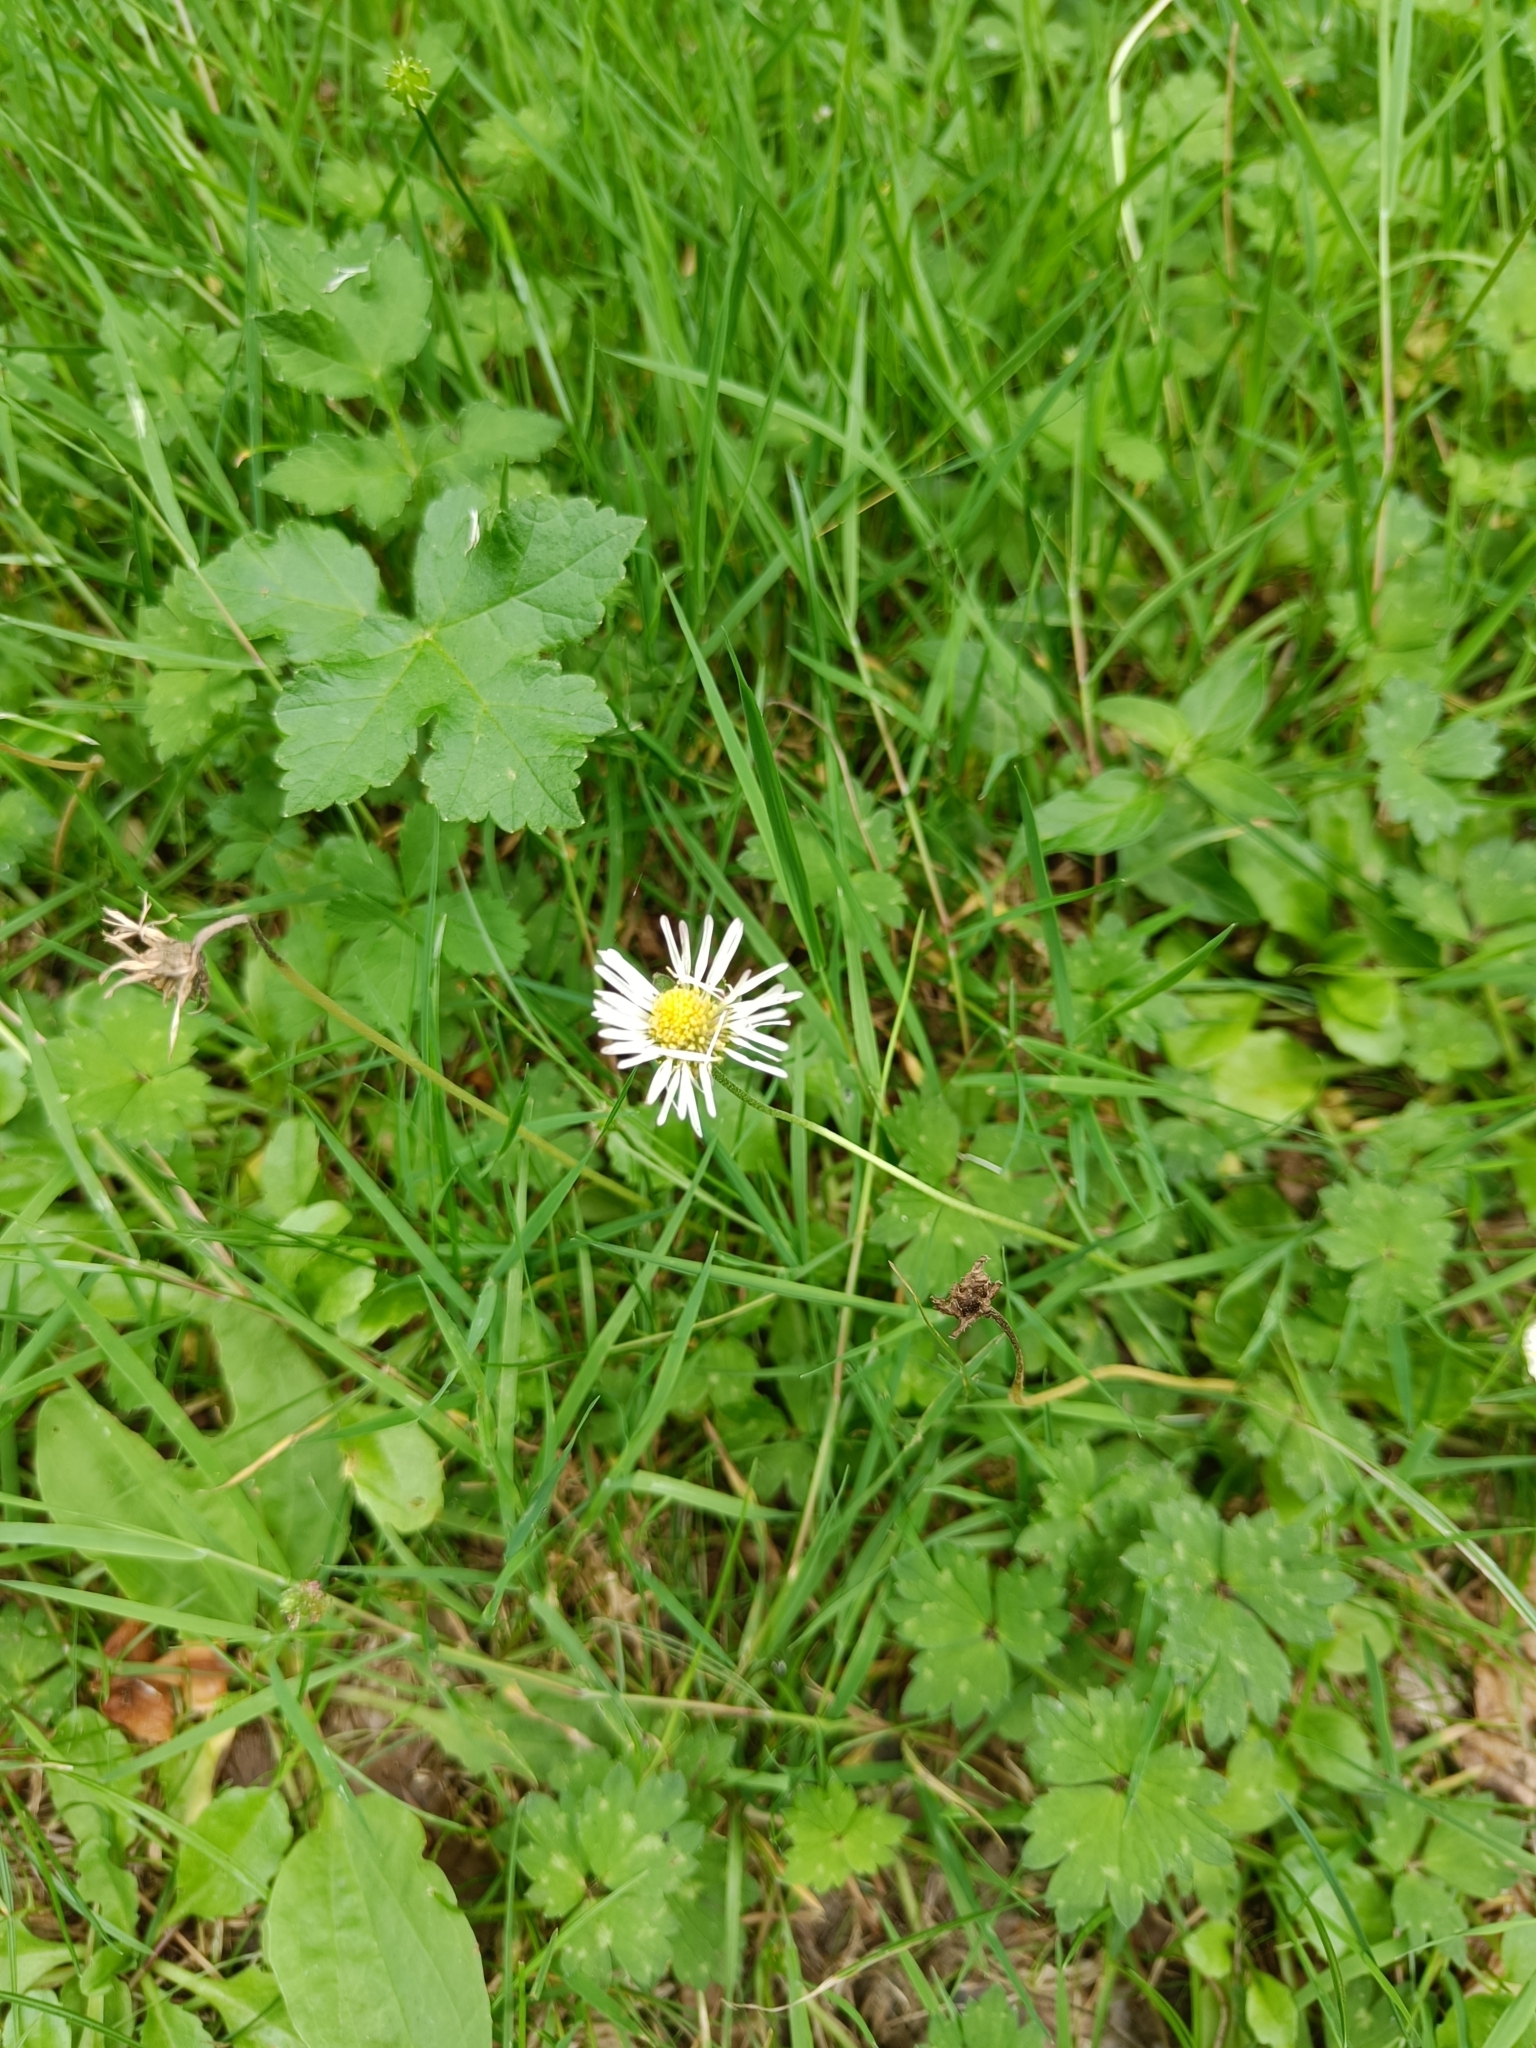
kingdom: Plantae
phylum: Tracheophyta
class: Magnoliopsida
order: Asterales
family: Asteraceae
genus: Bellis
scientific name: Bellis perennis
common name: Lawndaisy
